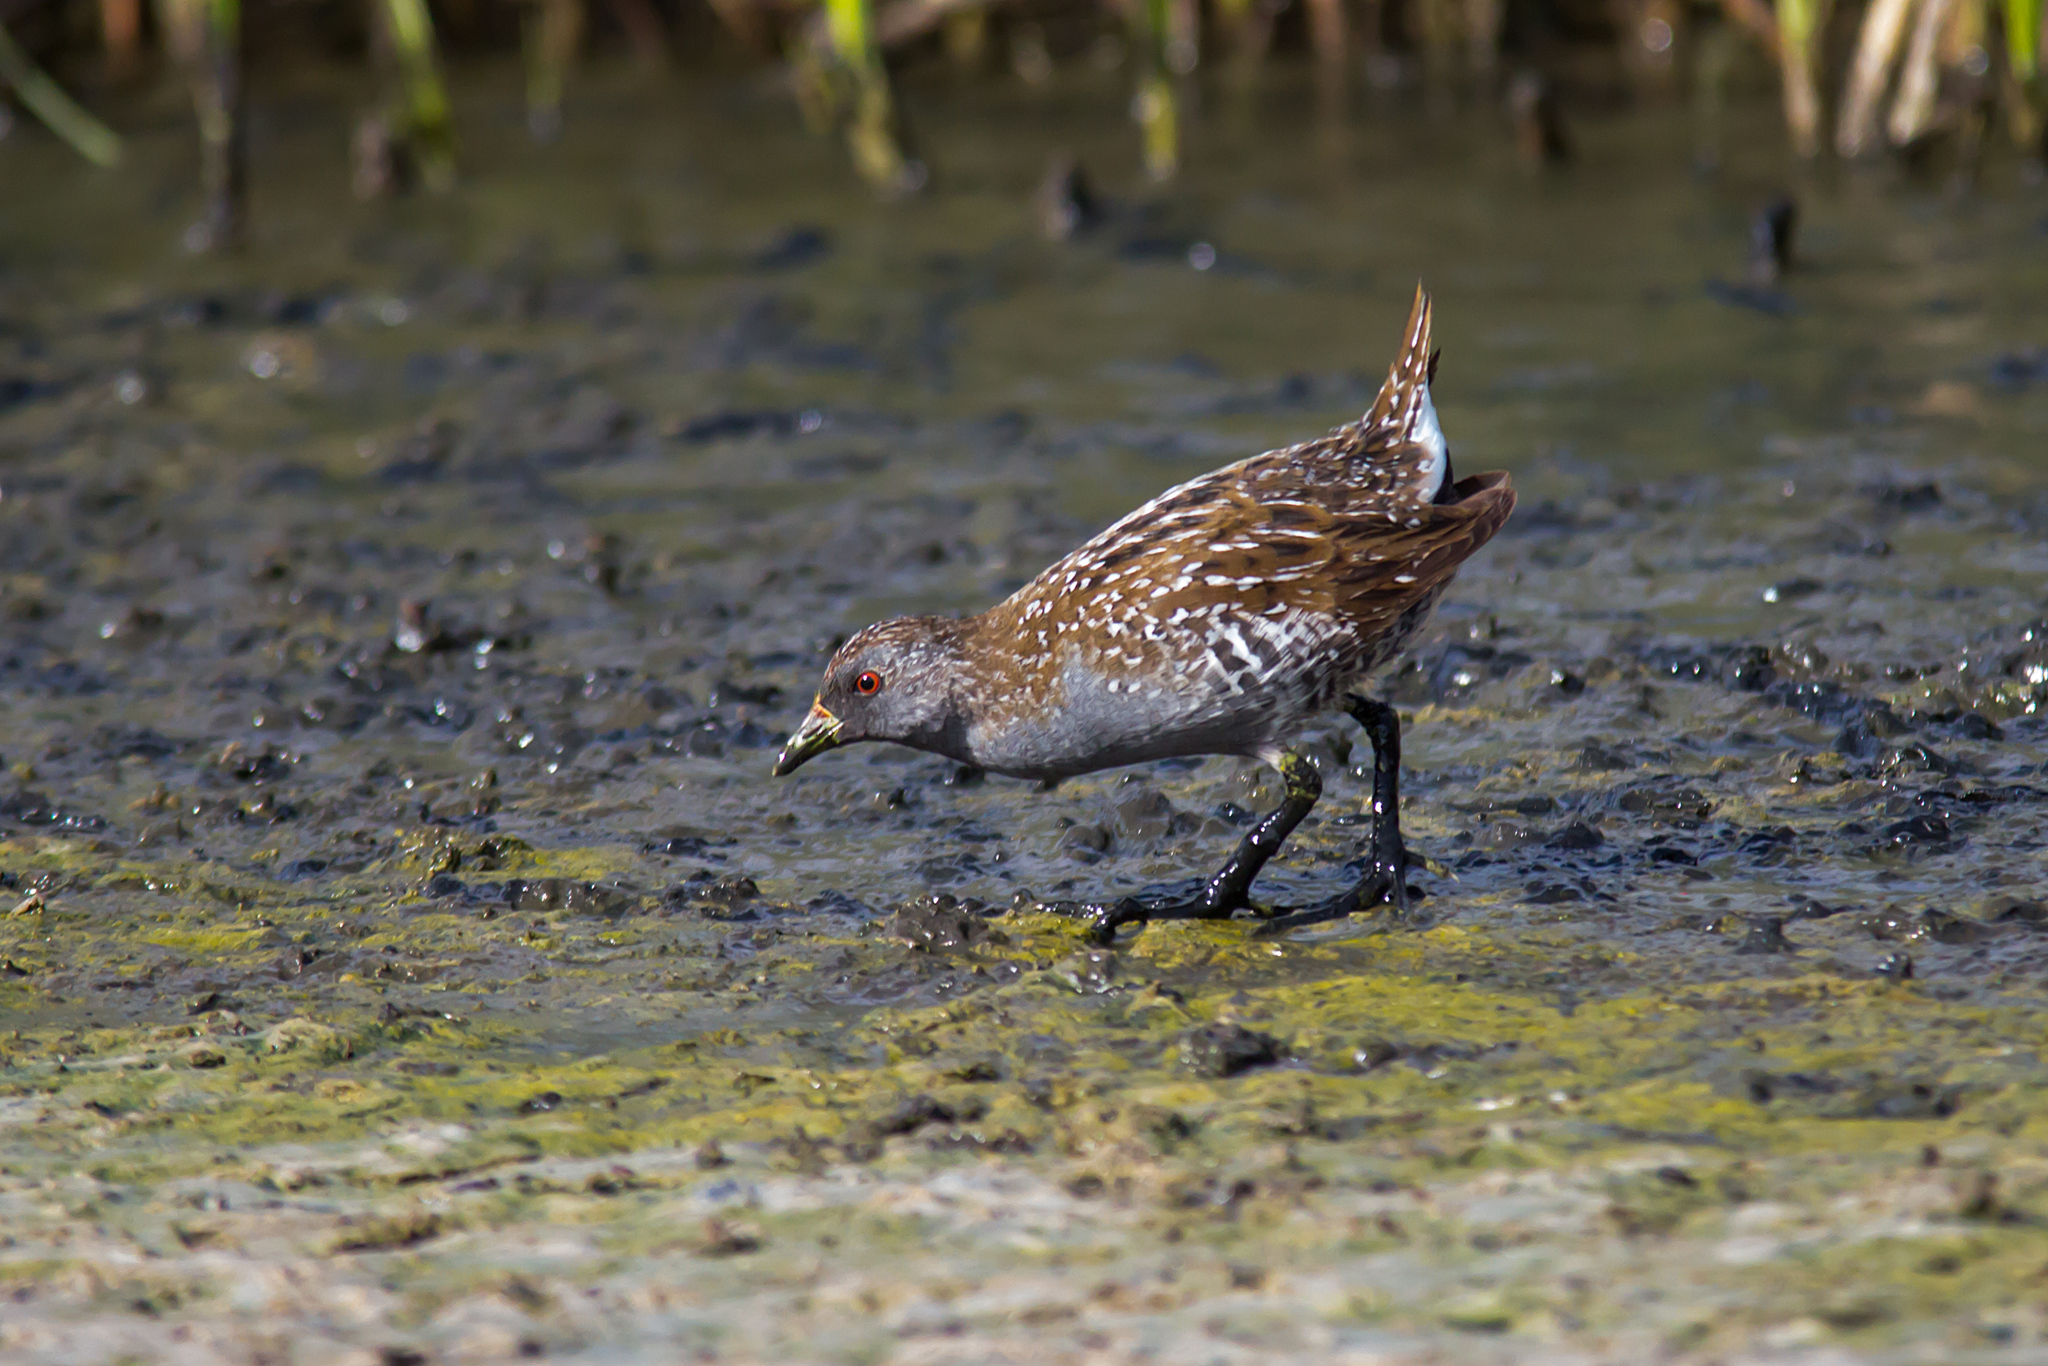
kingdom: Animalia
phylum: Chordata
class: Aves
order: Gruiformes
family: Rallidae
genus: Porzana
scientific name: Porzana fluminea
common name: Australian crake
